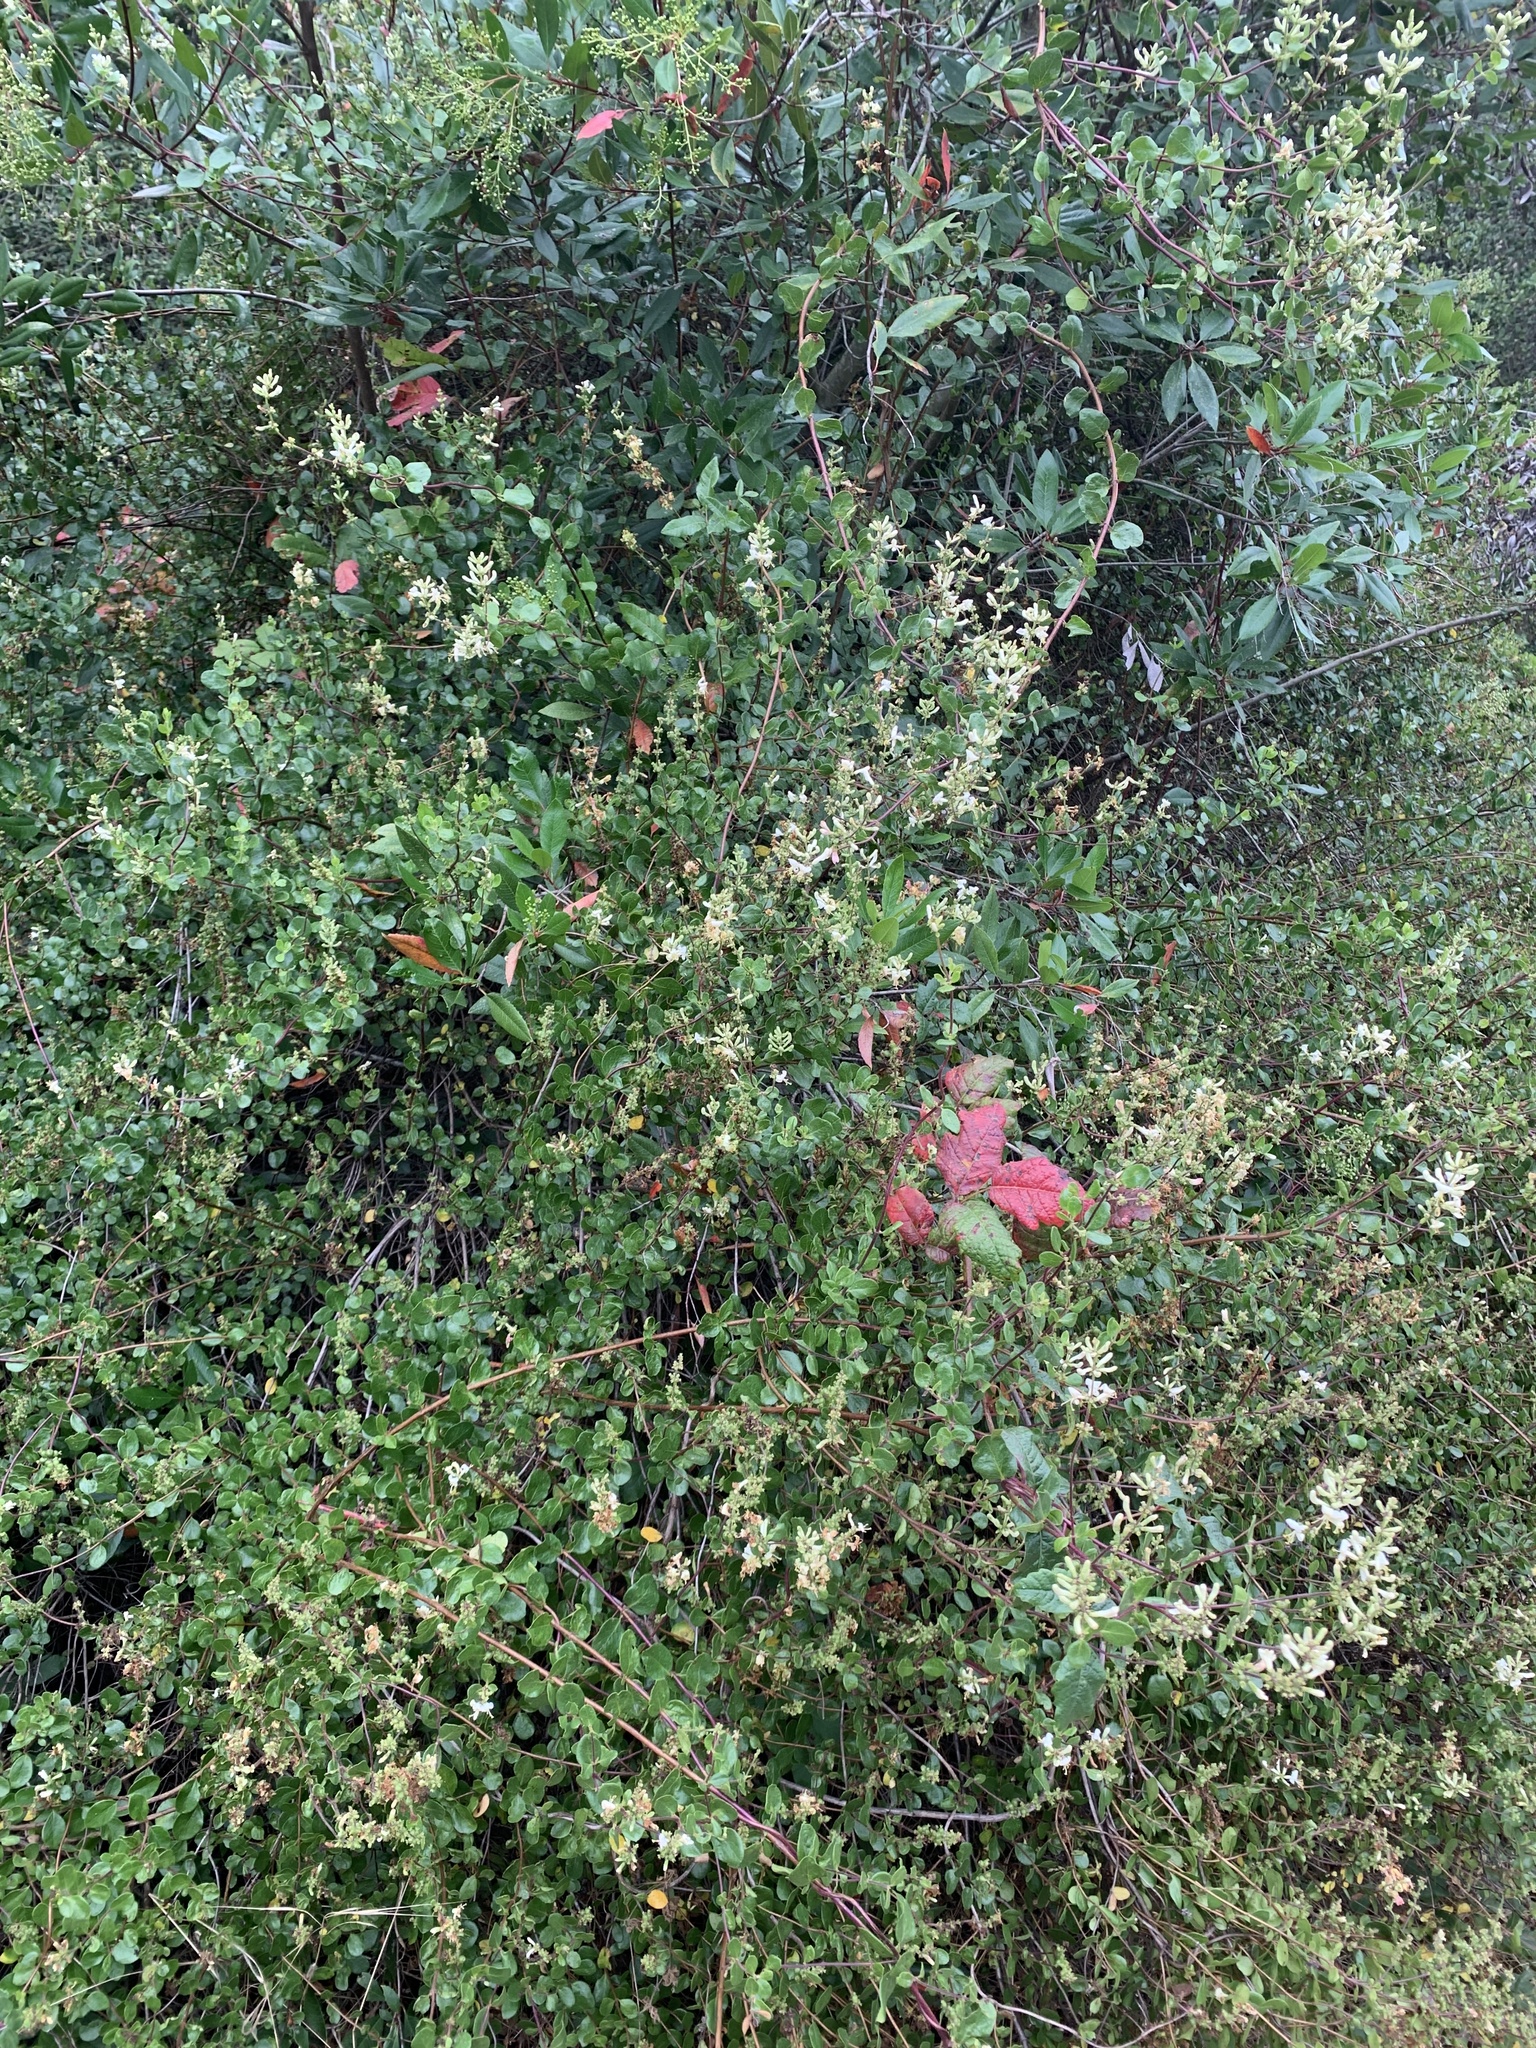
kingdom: Plantae
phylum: Tracheophyta
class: Magnoliopsida
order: Dipsacales
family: Caprifoliaceae
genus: Lonicera
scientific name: Lonicera subspicata
